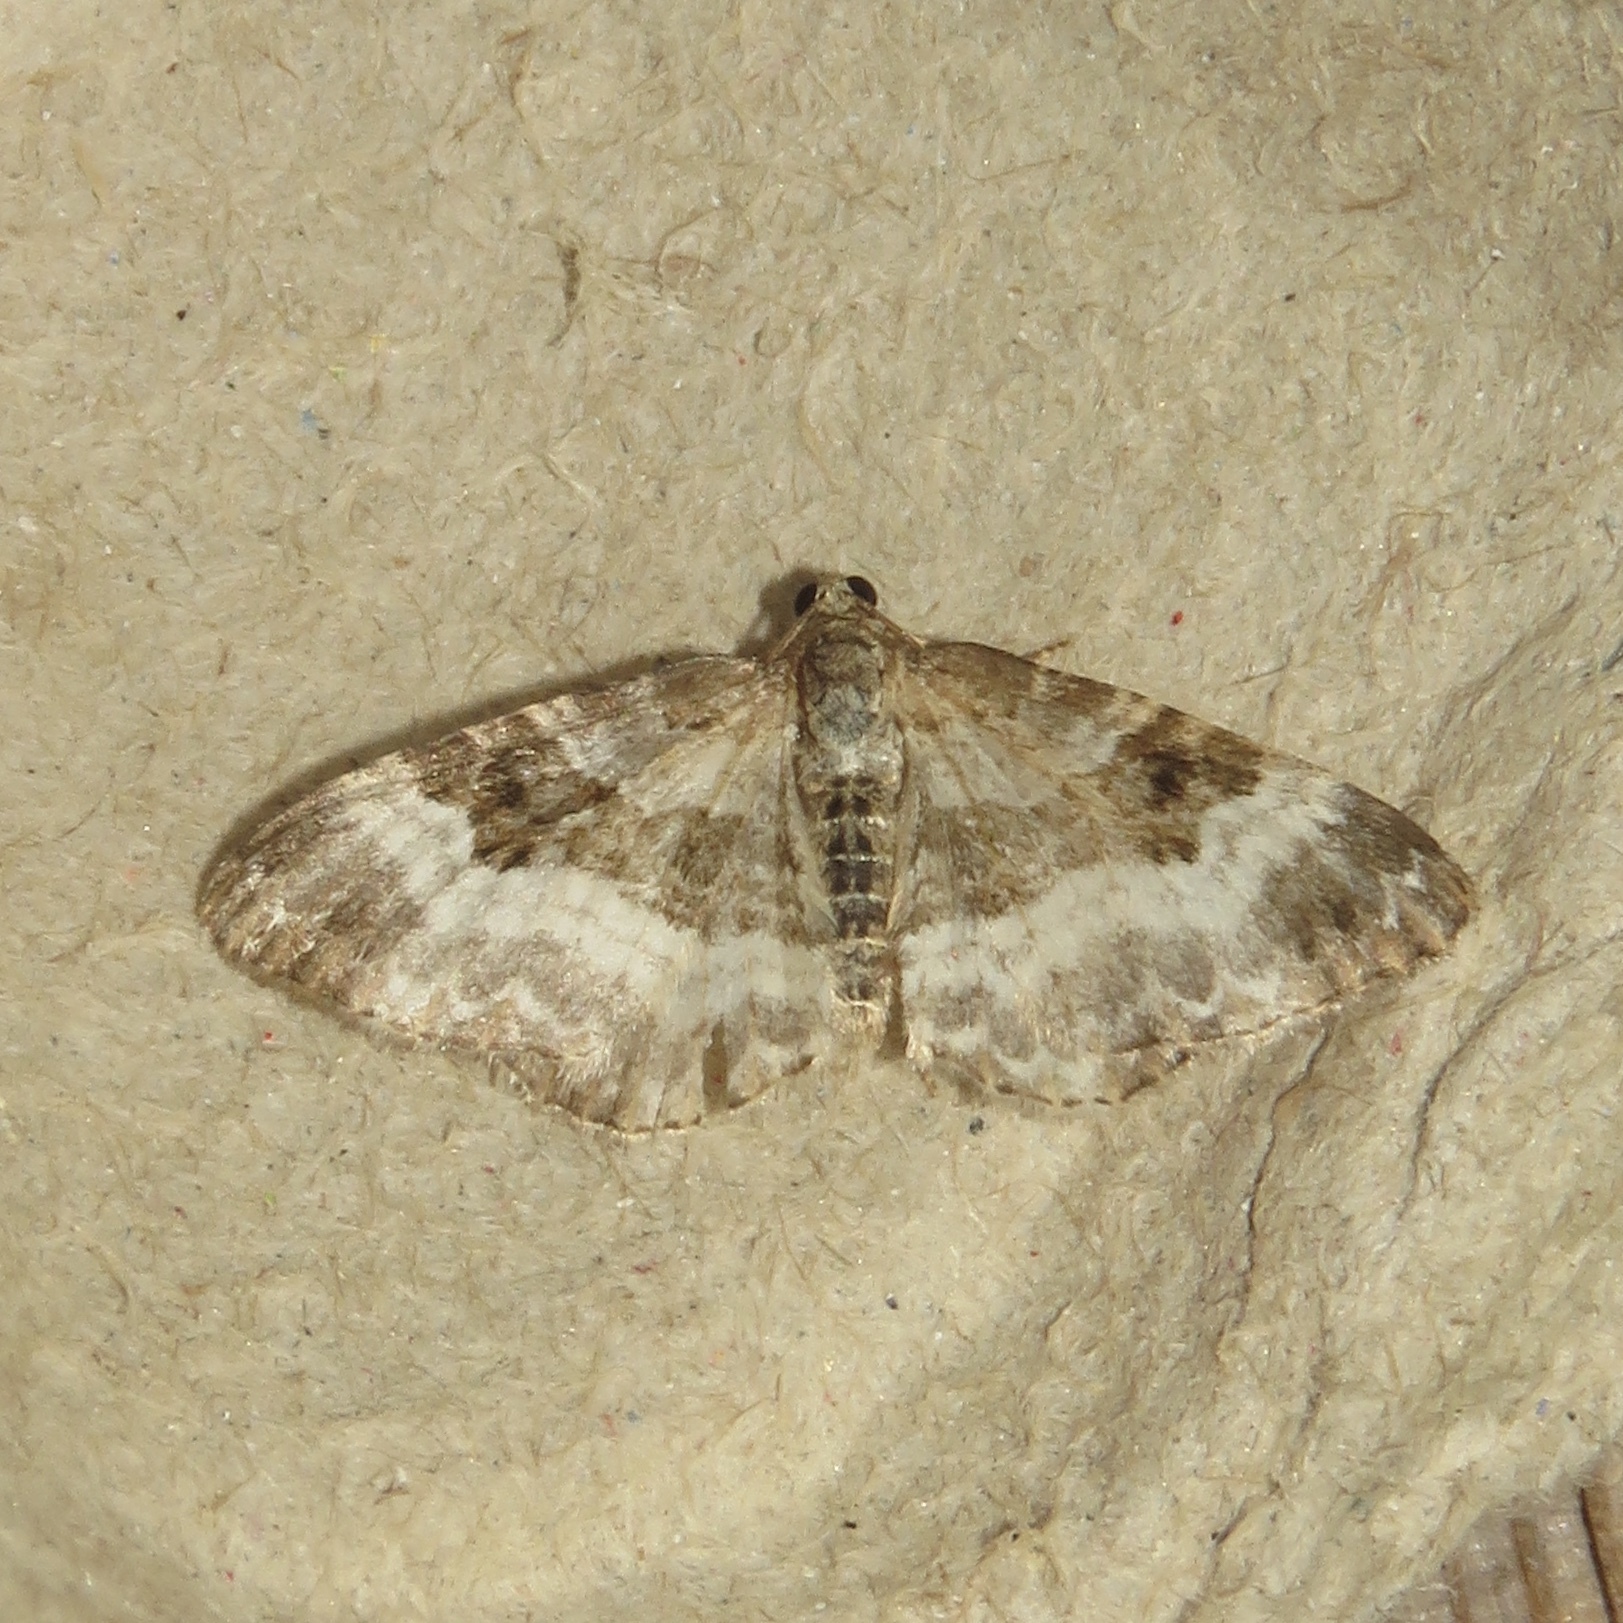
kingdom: Animalia
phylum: Arthropoda
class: Insecta
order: Lepidoptera
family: Geometridae
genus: Epirrhoe
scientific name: Epirrhoe alternata
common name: Common carpet
